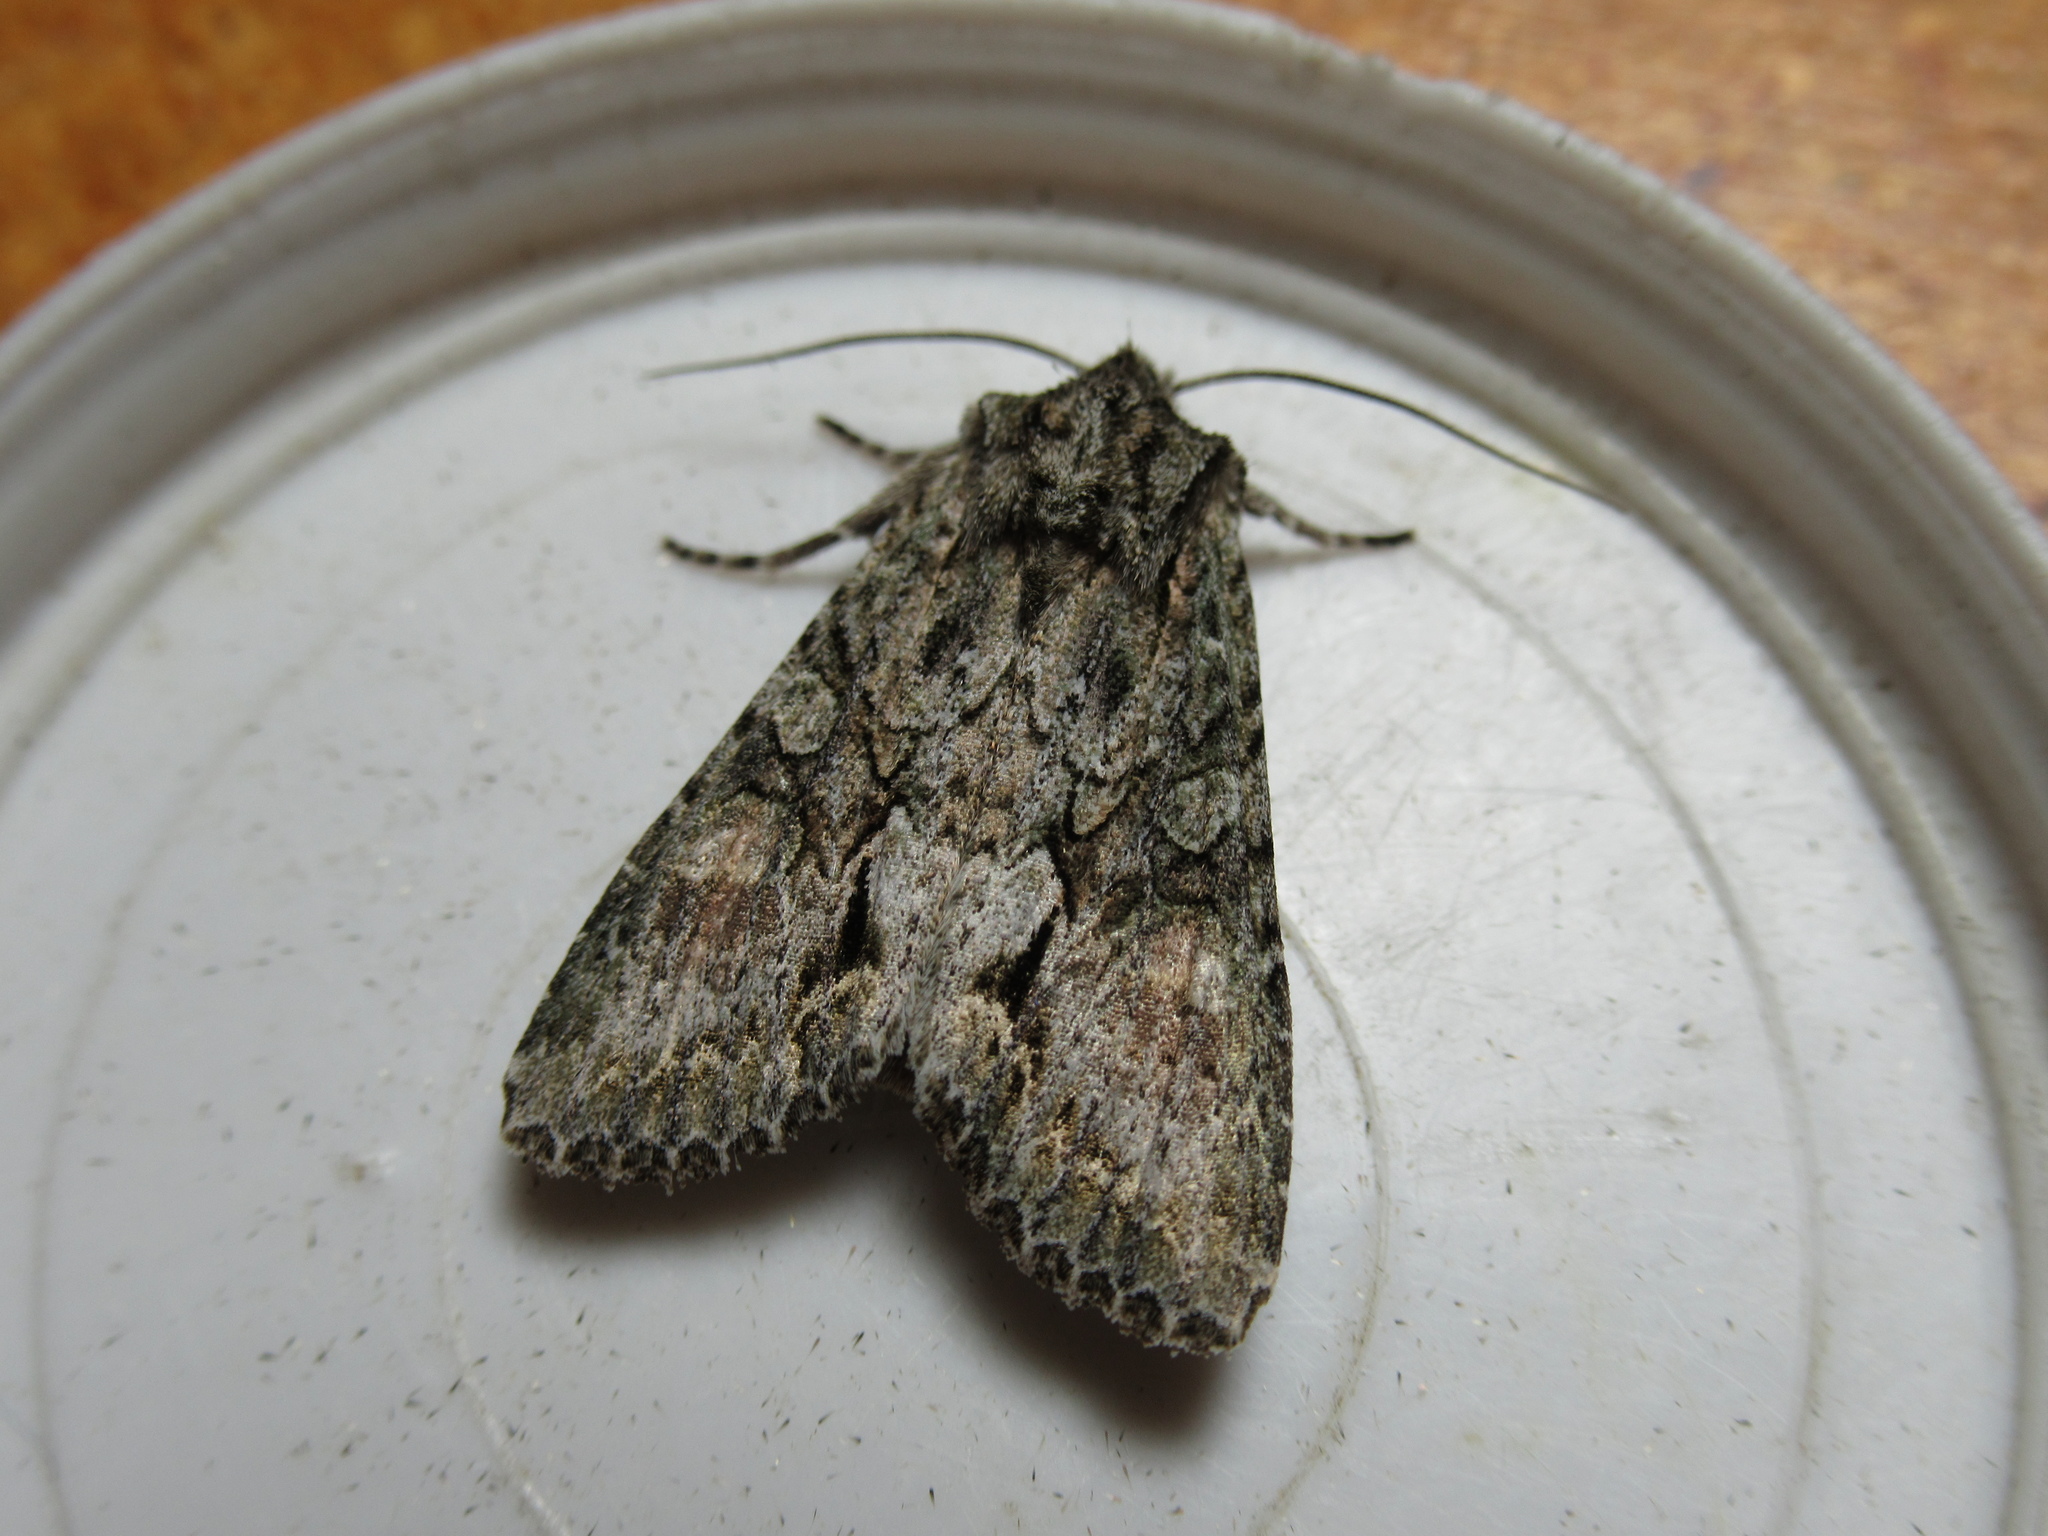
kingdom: Animalia
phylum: Arthropoda
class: Insecta
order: Lepidoptera
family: Noctuidae
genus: Ichneutica
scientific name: Ichneutica mutans
